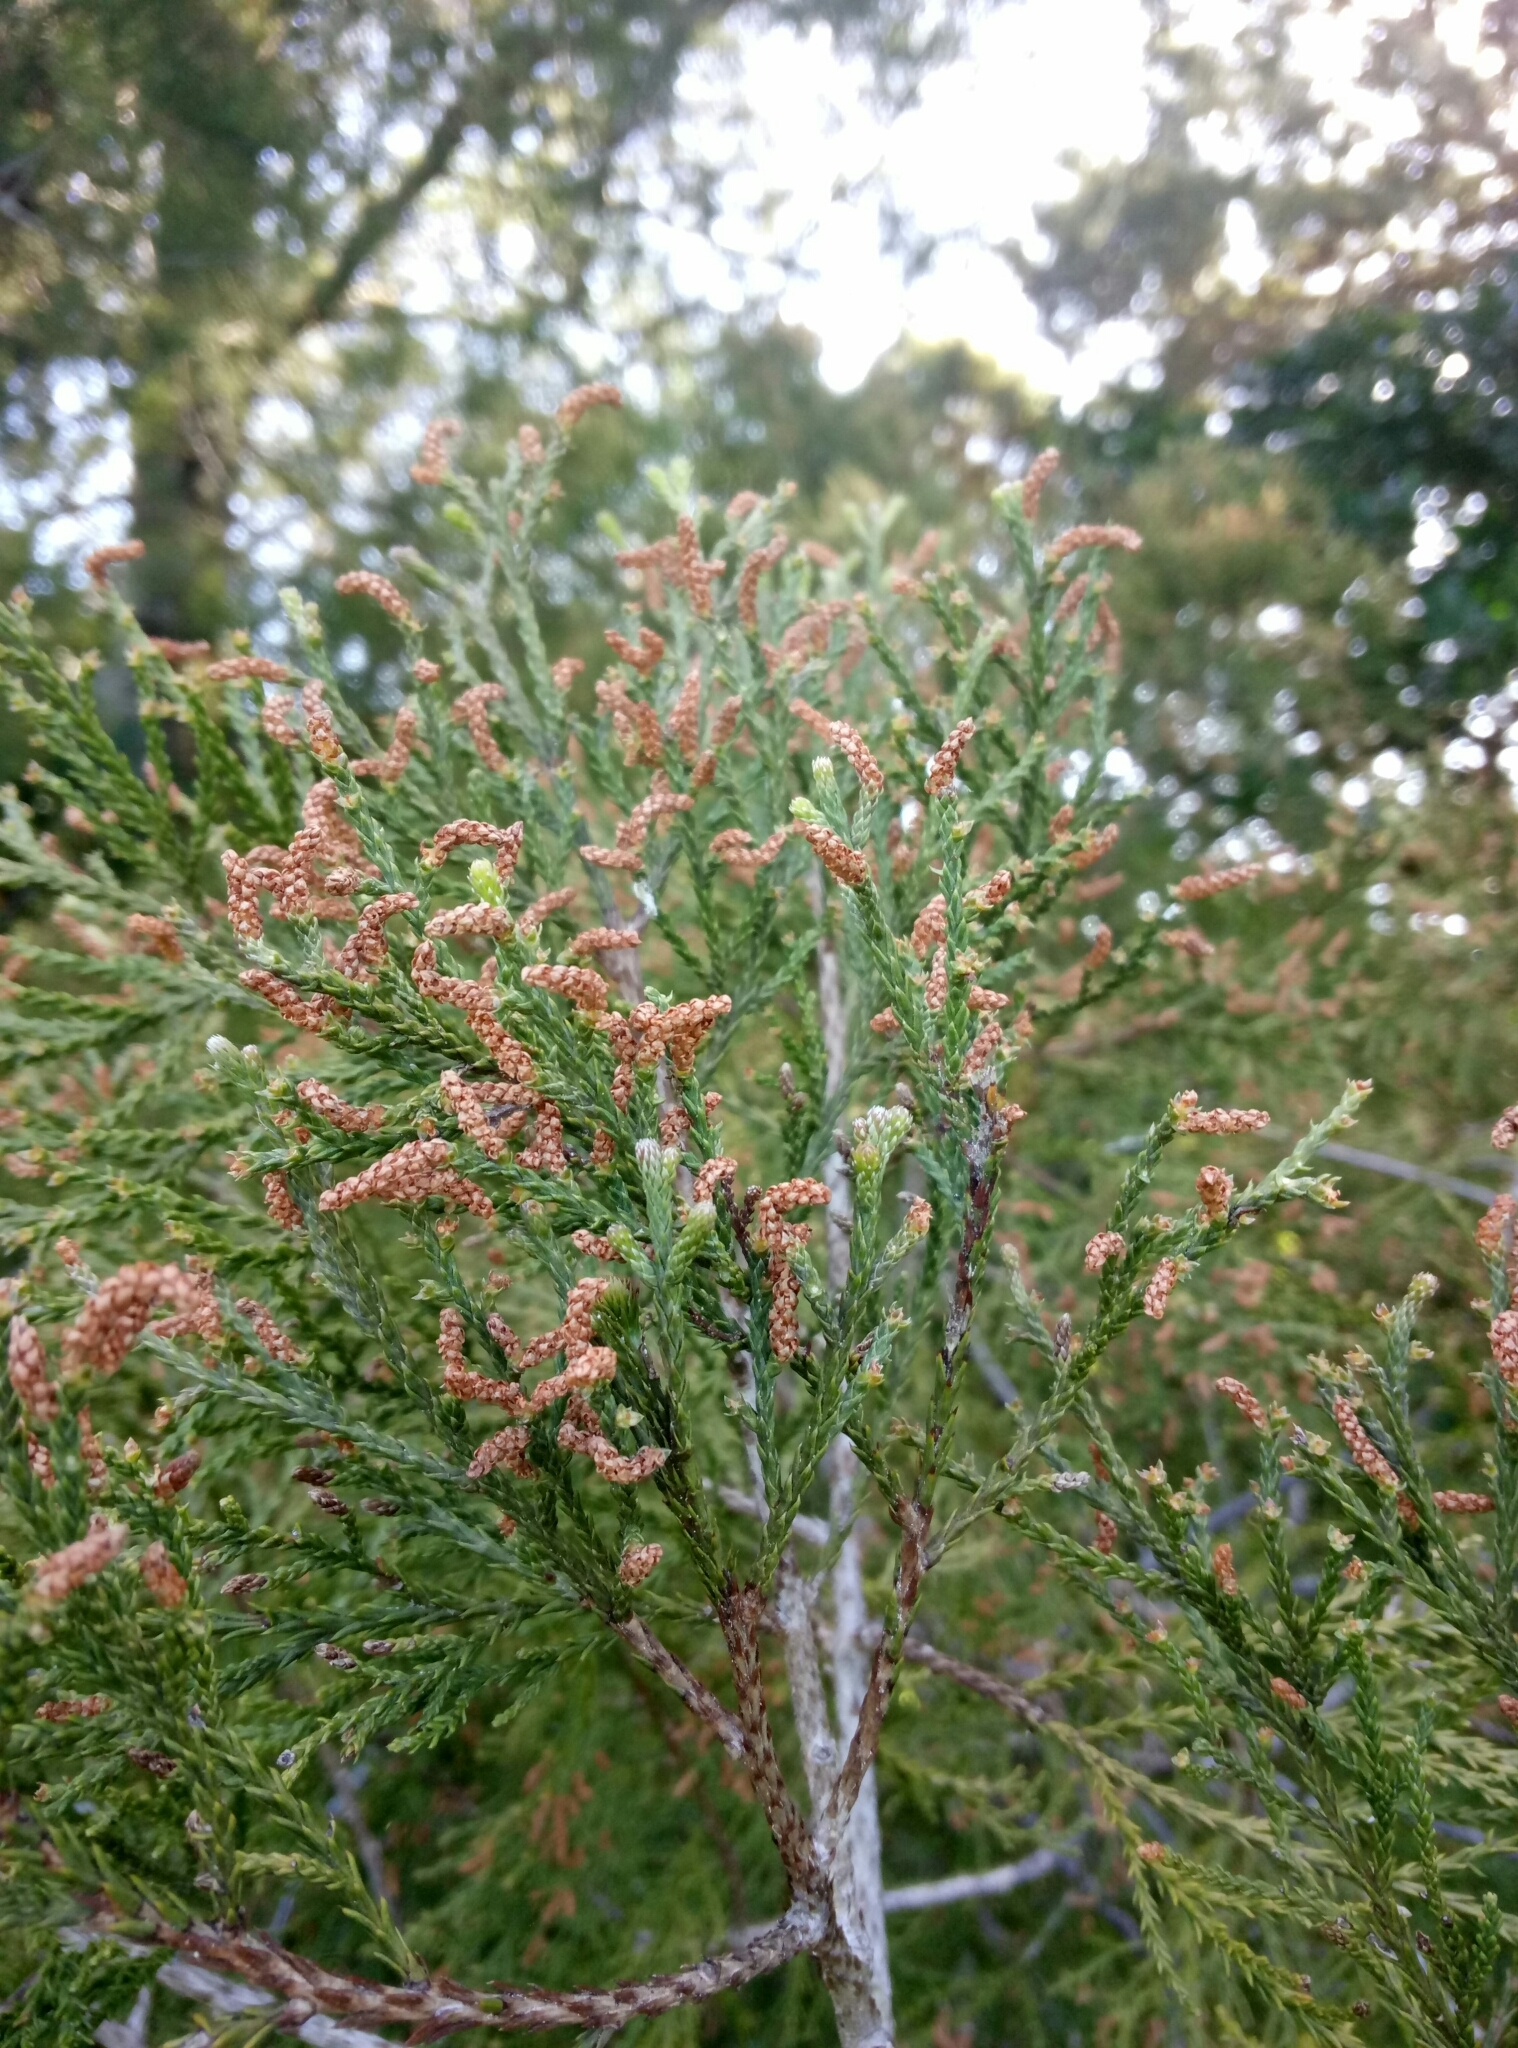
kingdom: Plantae
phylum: Tracheophyta
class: Pinopsida
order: Pinales
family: Podocarpaceae
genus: Dacrycarpus
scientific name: Dacrycarpus dacrydioides
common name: White pine
